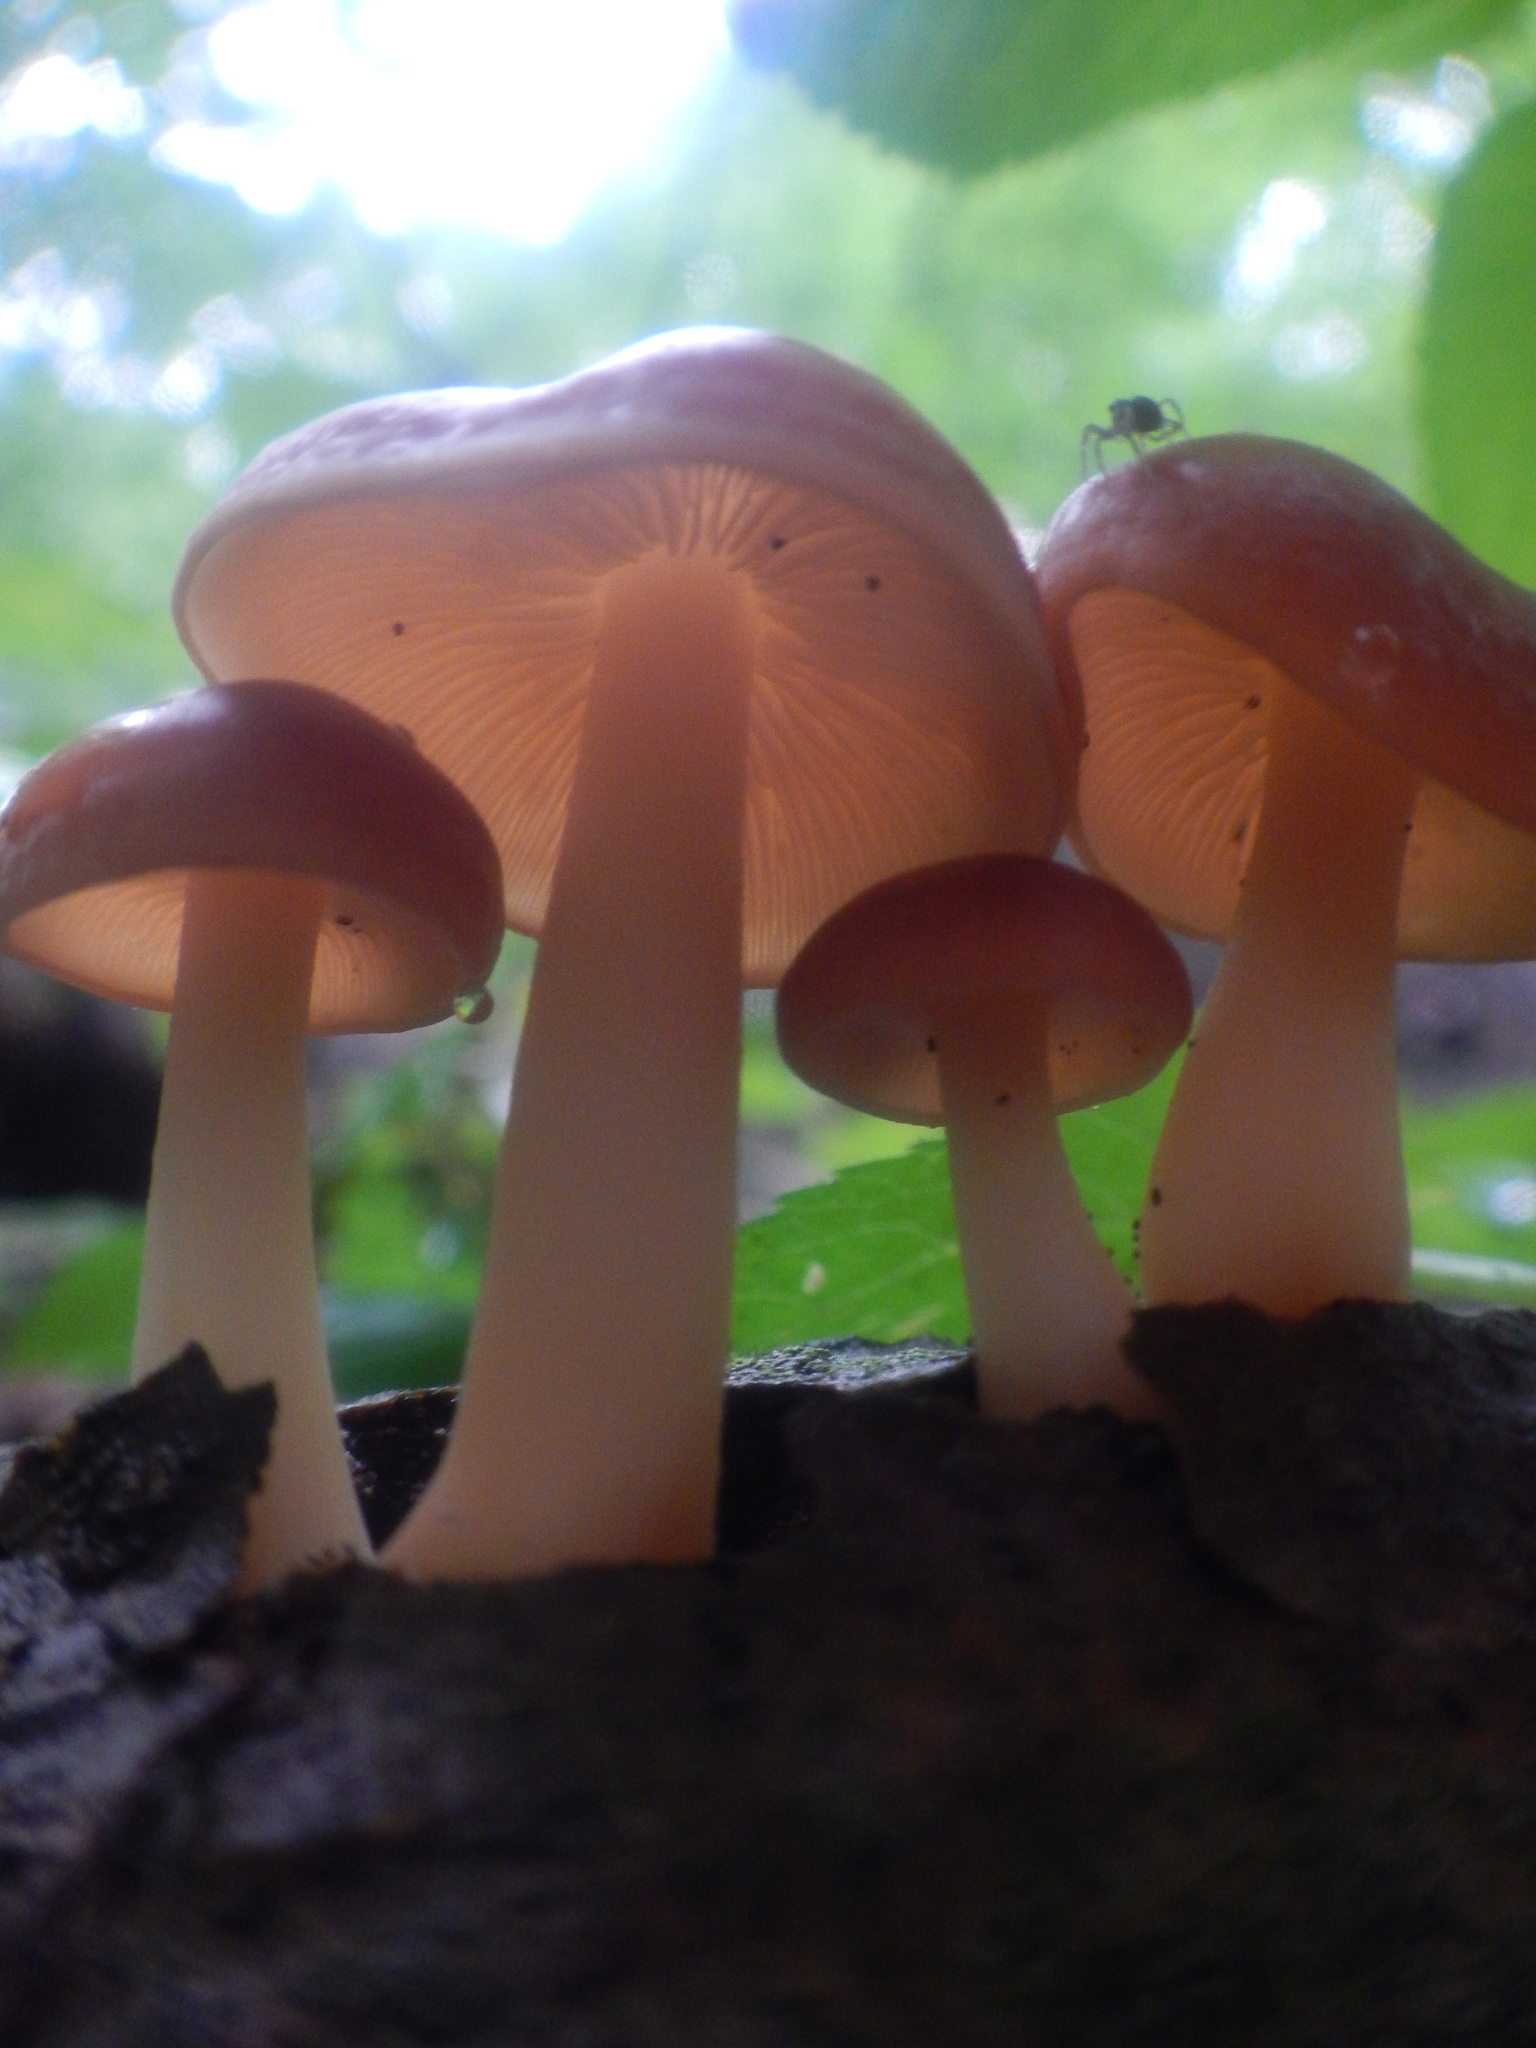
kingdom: Fungi
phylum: Basidiomycota
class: Agaricomycetes
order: Agaricales
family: Omphalotaceae
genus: Gymnopus
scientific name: Gymnopus dryophilus
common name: Penny top
